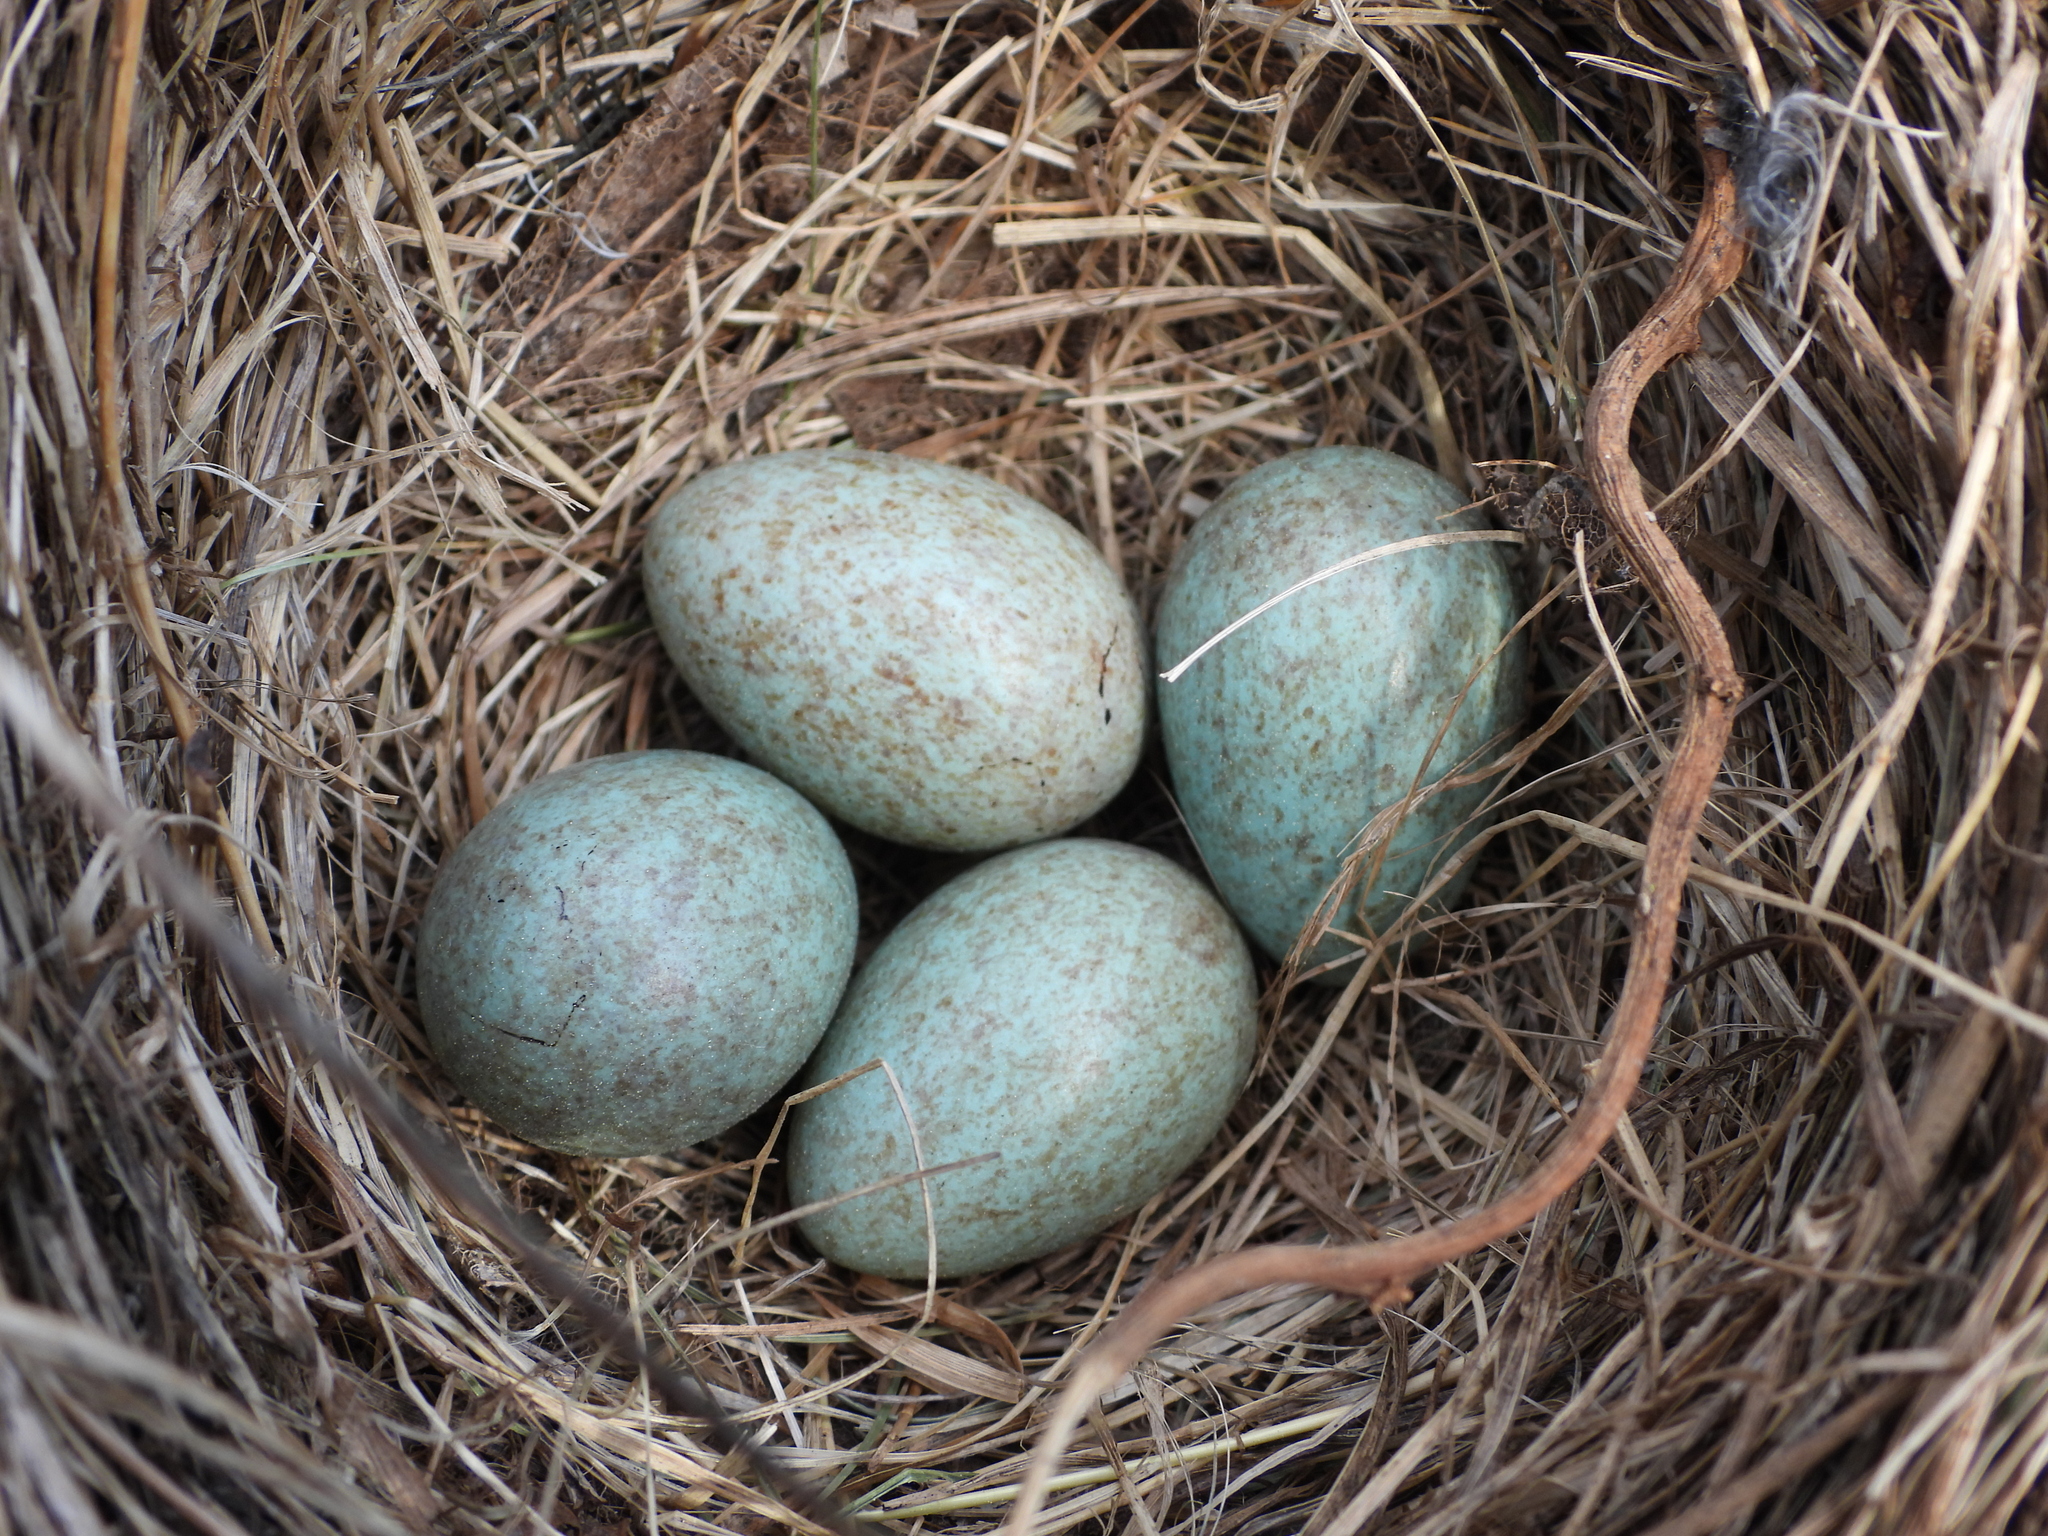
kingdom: Animalia
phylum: Chordata
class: Aves
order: Passeriformes
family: Turdidae
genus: Turdus
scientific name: Turdus merula
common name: Common blackbird
